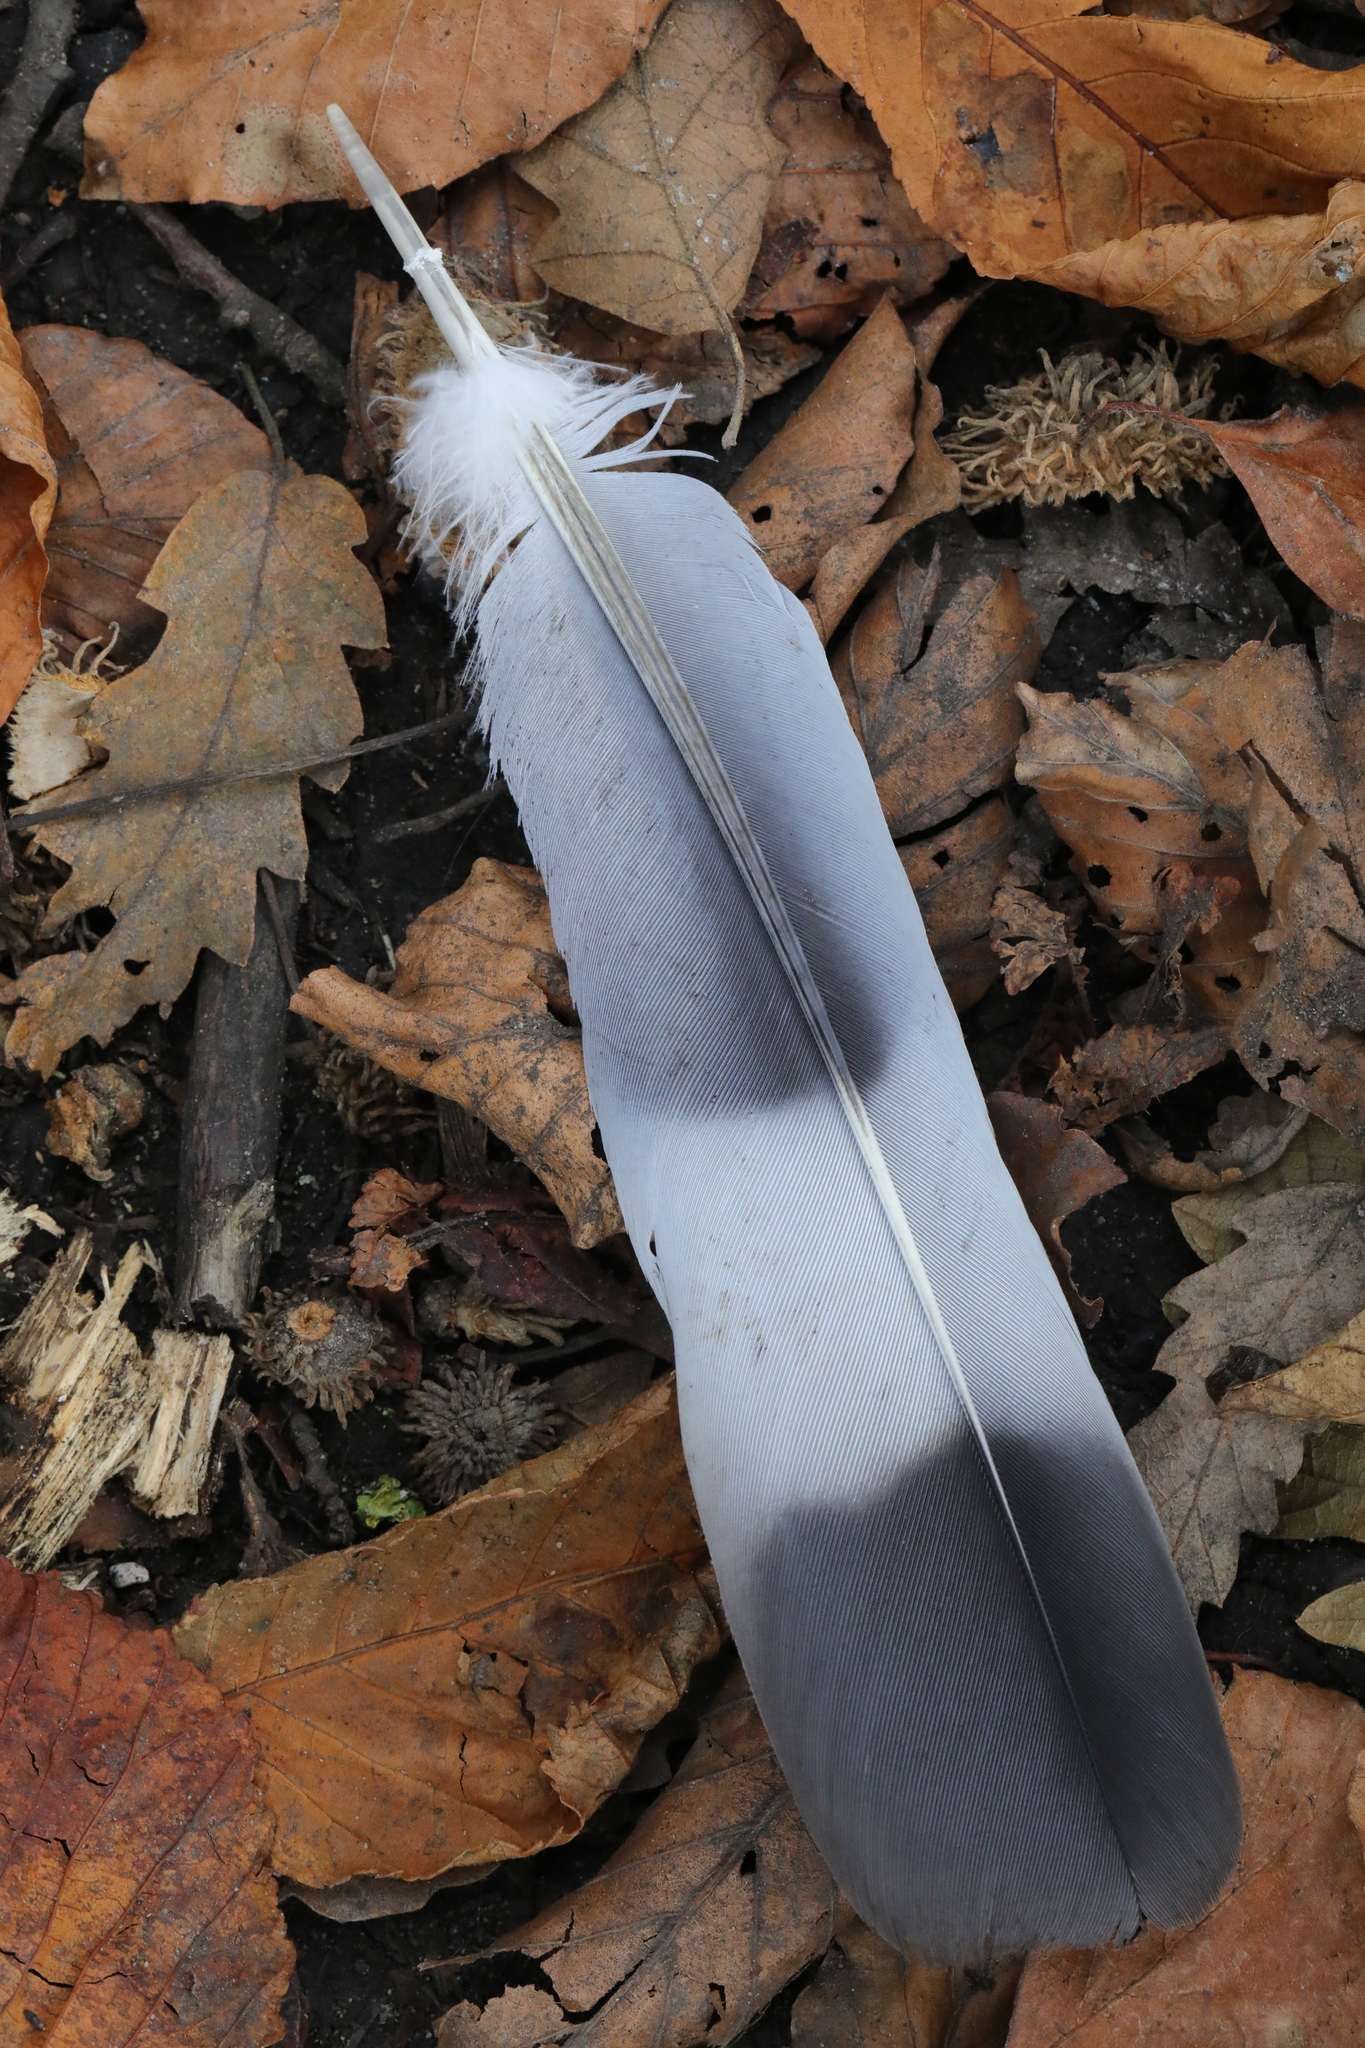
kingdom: Animalia
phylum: Chordata
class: Aves
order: Columbiformes
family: Columbidae
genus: Columba
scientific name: Columba palumbus
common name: Common wood pigeon
